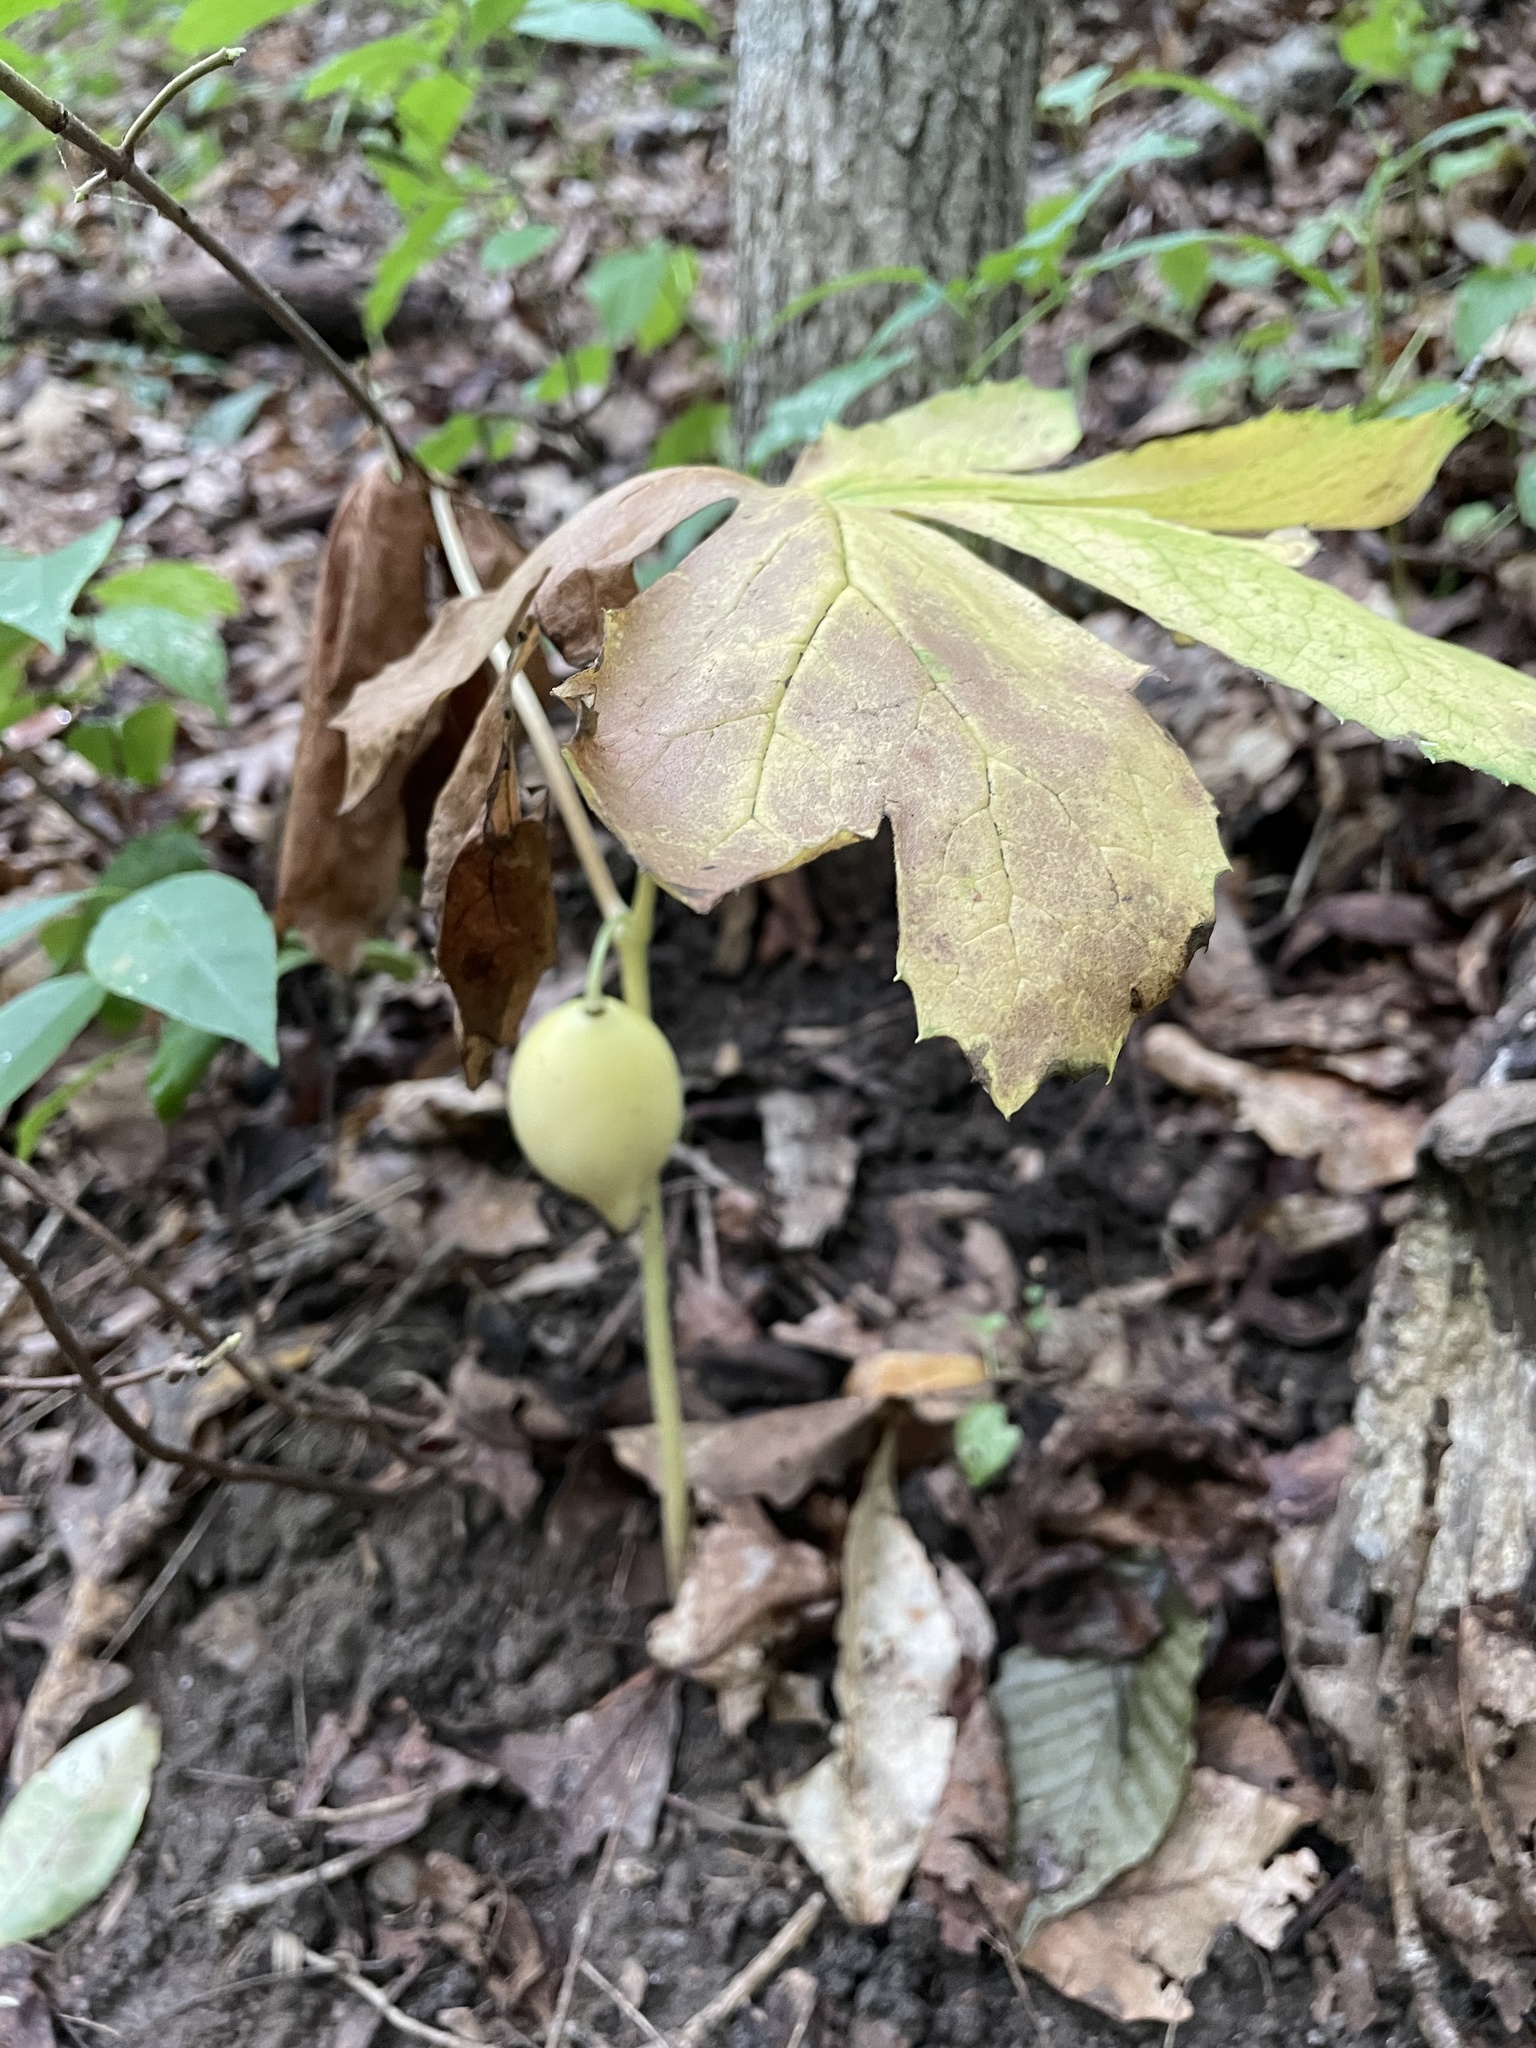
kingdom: Plantae
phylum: Tracheophyta
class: Magnoliopsida
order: Ranunculales
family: Berberidaceae
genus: Podophyllum
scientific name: Podophyllum peltatum
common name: Wild mandrake
